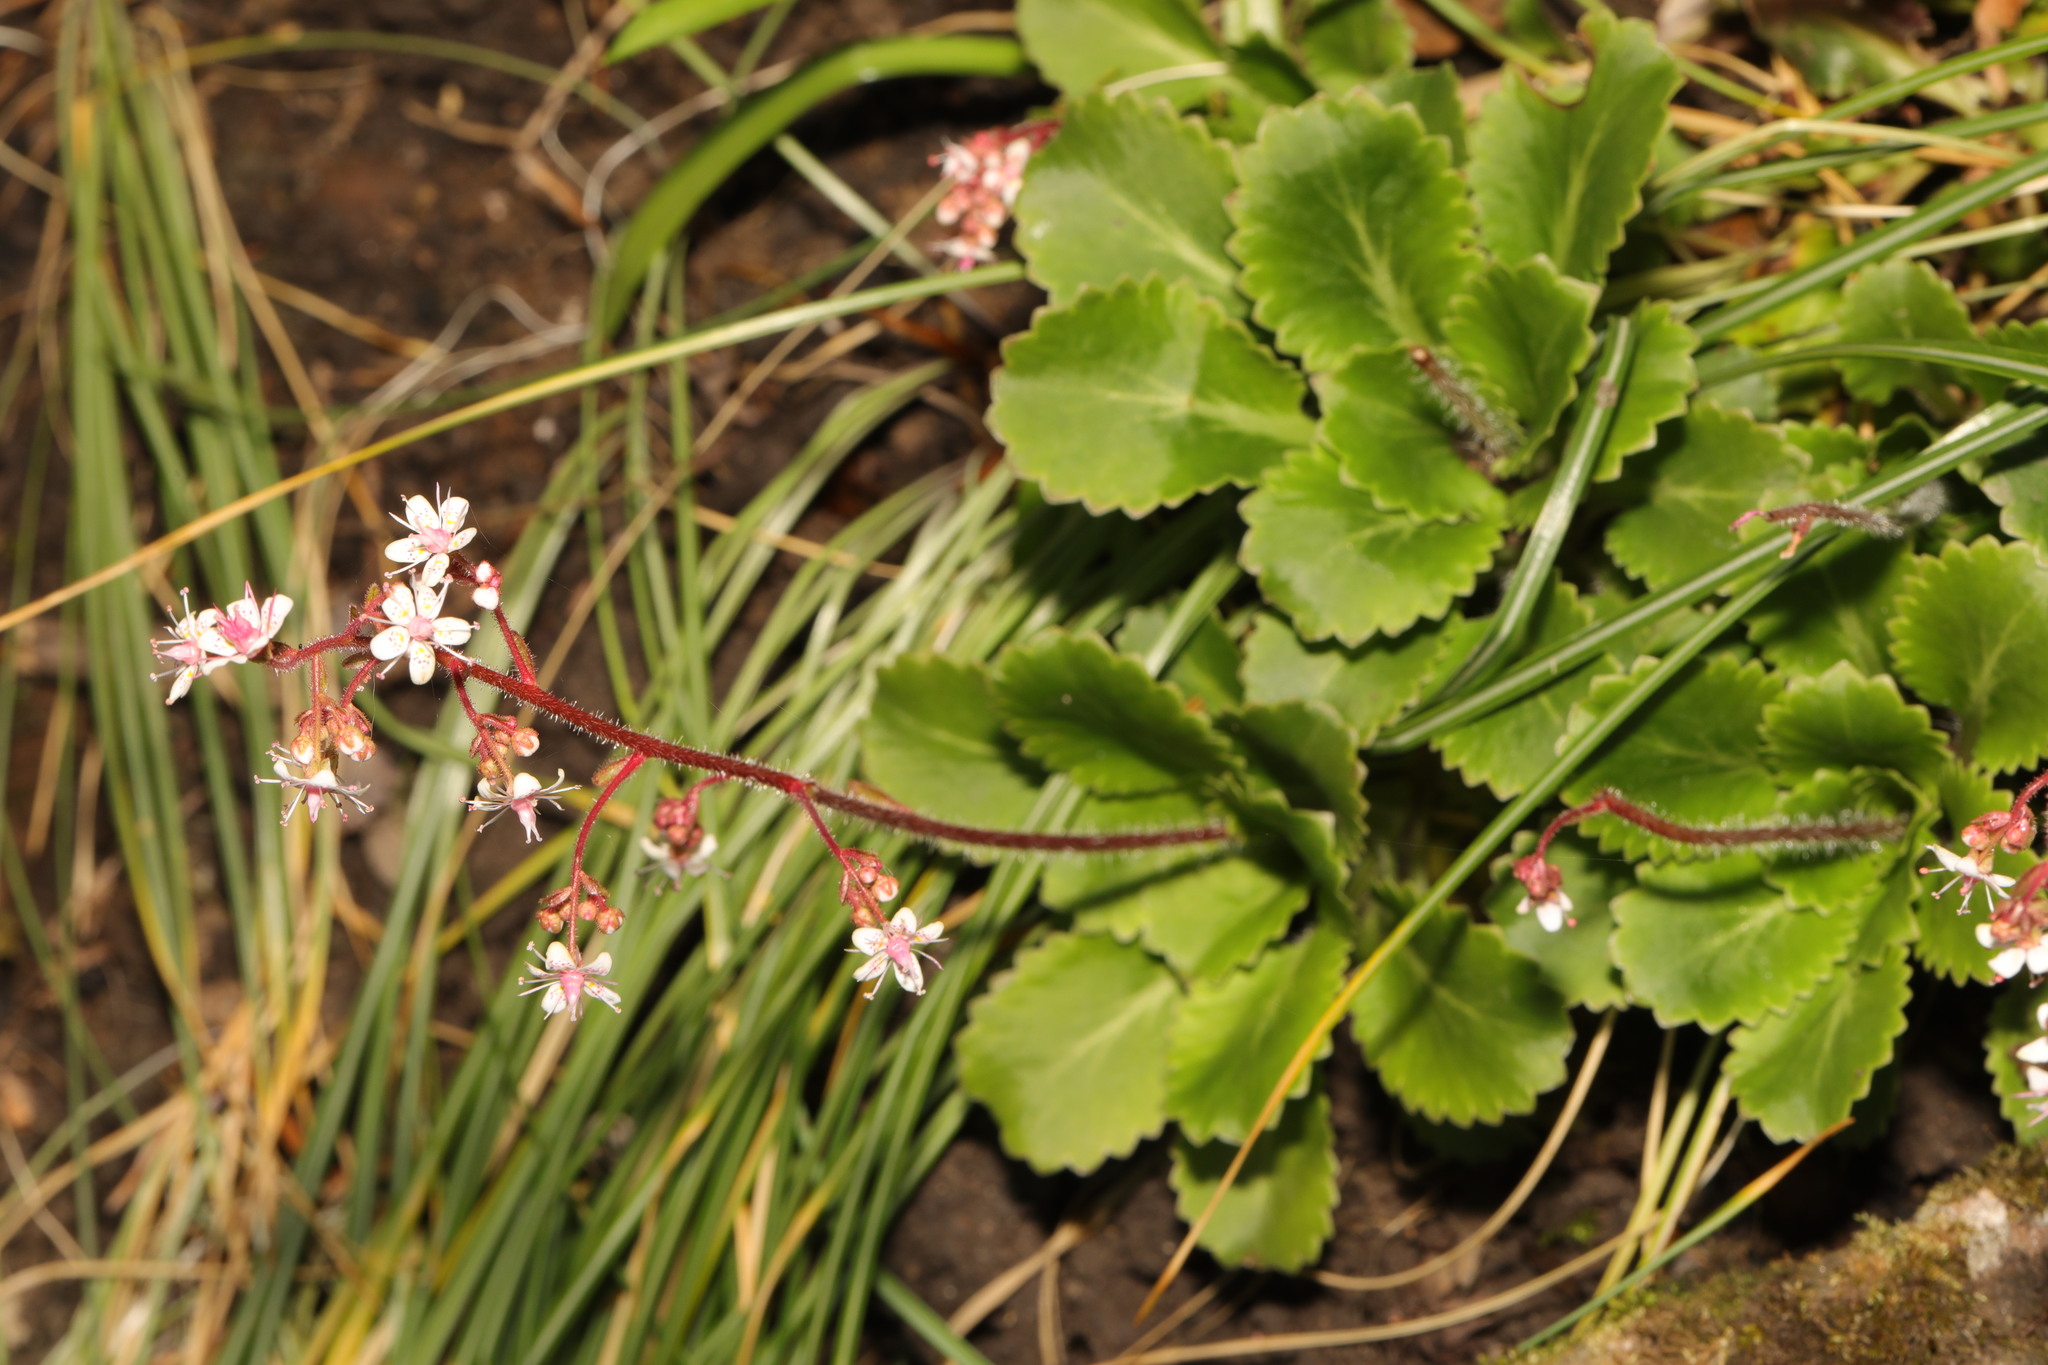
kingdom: Plantae
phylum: Tracheophyta
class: Magnoliopsida
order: Saxifragales
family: Saxifragaceae
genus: Saxifraga
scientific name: Saxifraga urbium
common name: Londonpride
